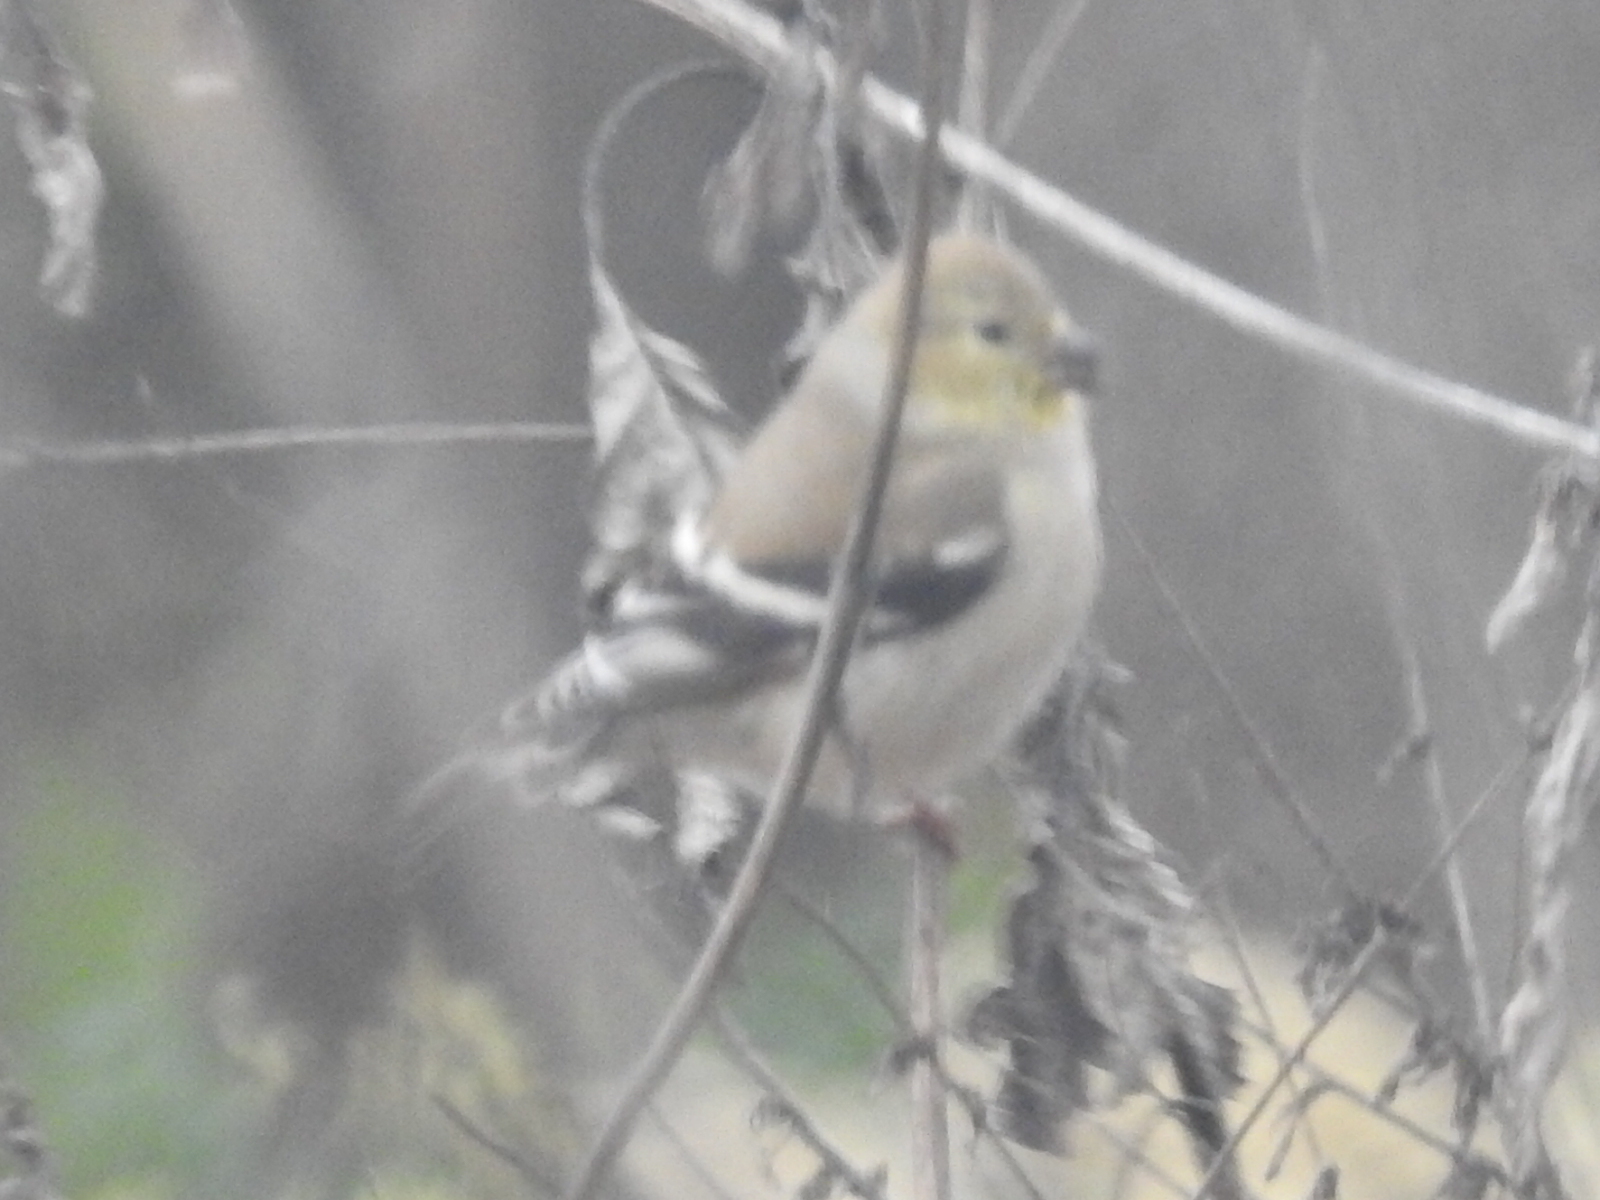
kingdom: Animalia
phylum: Chordata
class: Aves
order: Passeriformes
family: Fringillidae
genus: Spinus
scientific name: Spinus tristis
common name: American goldfinch
